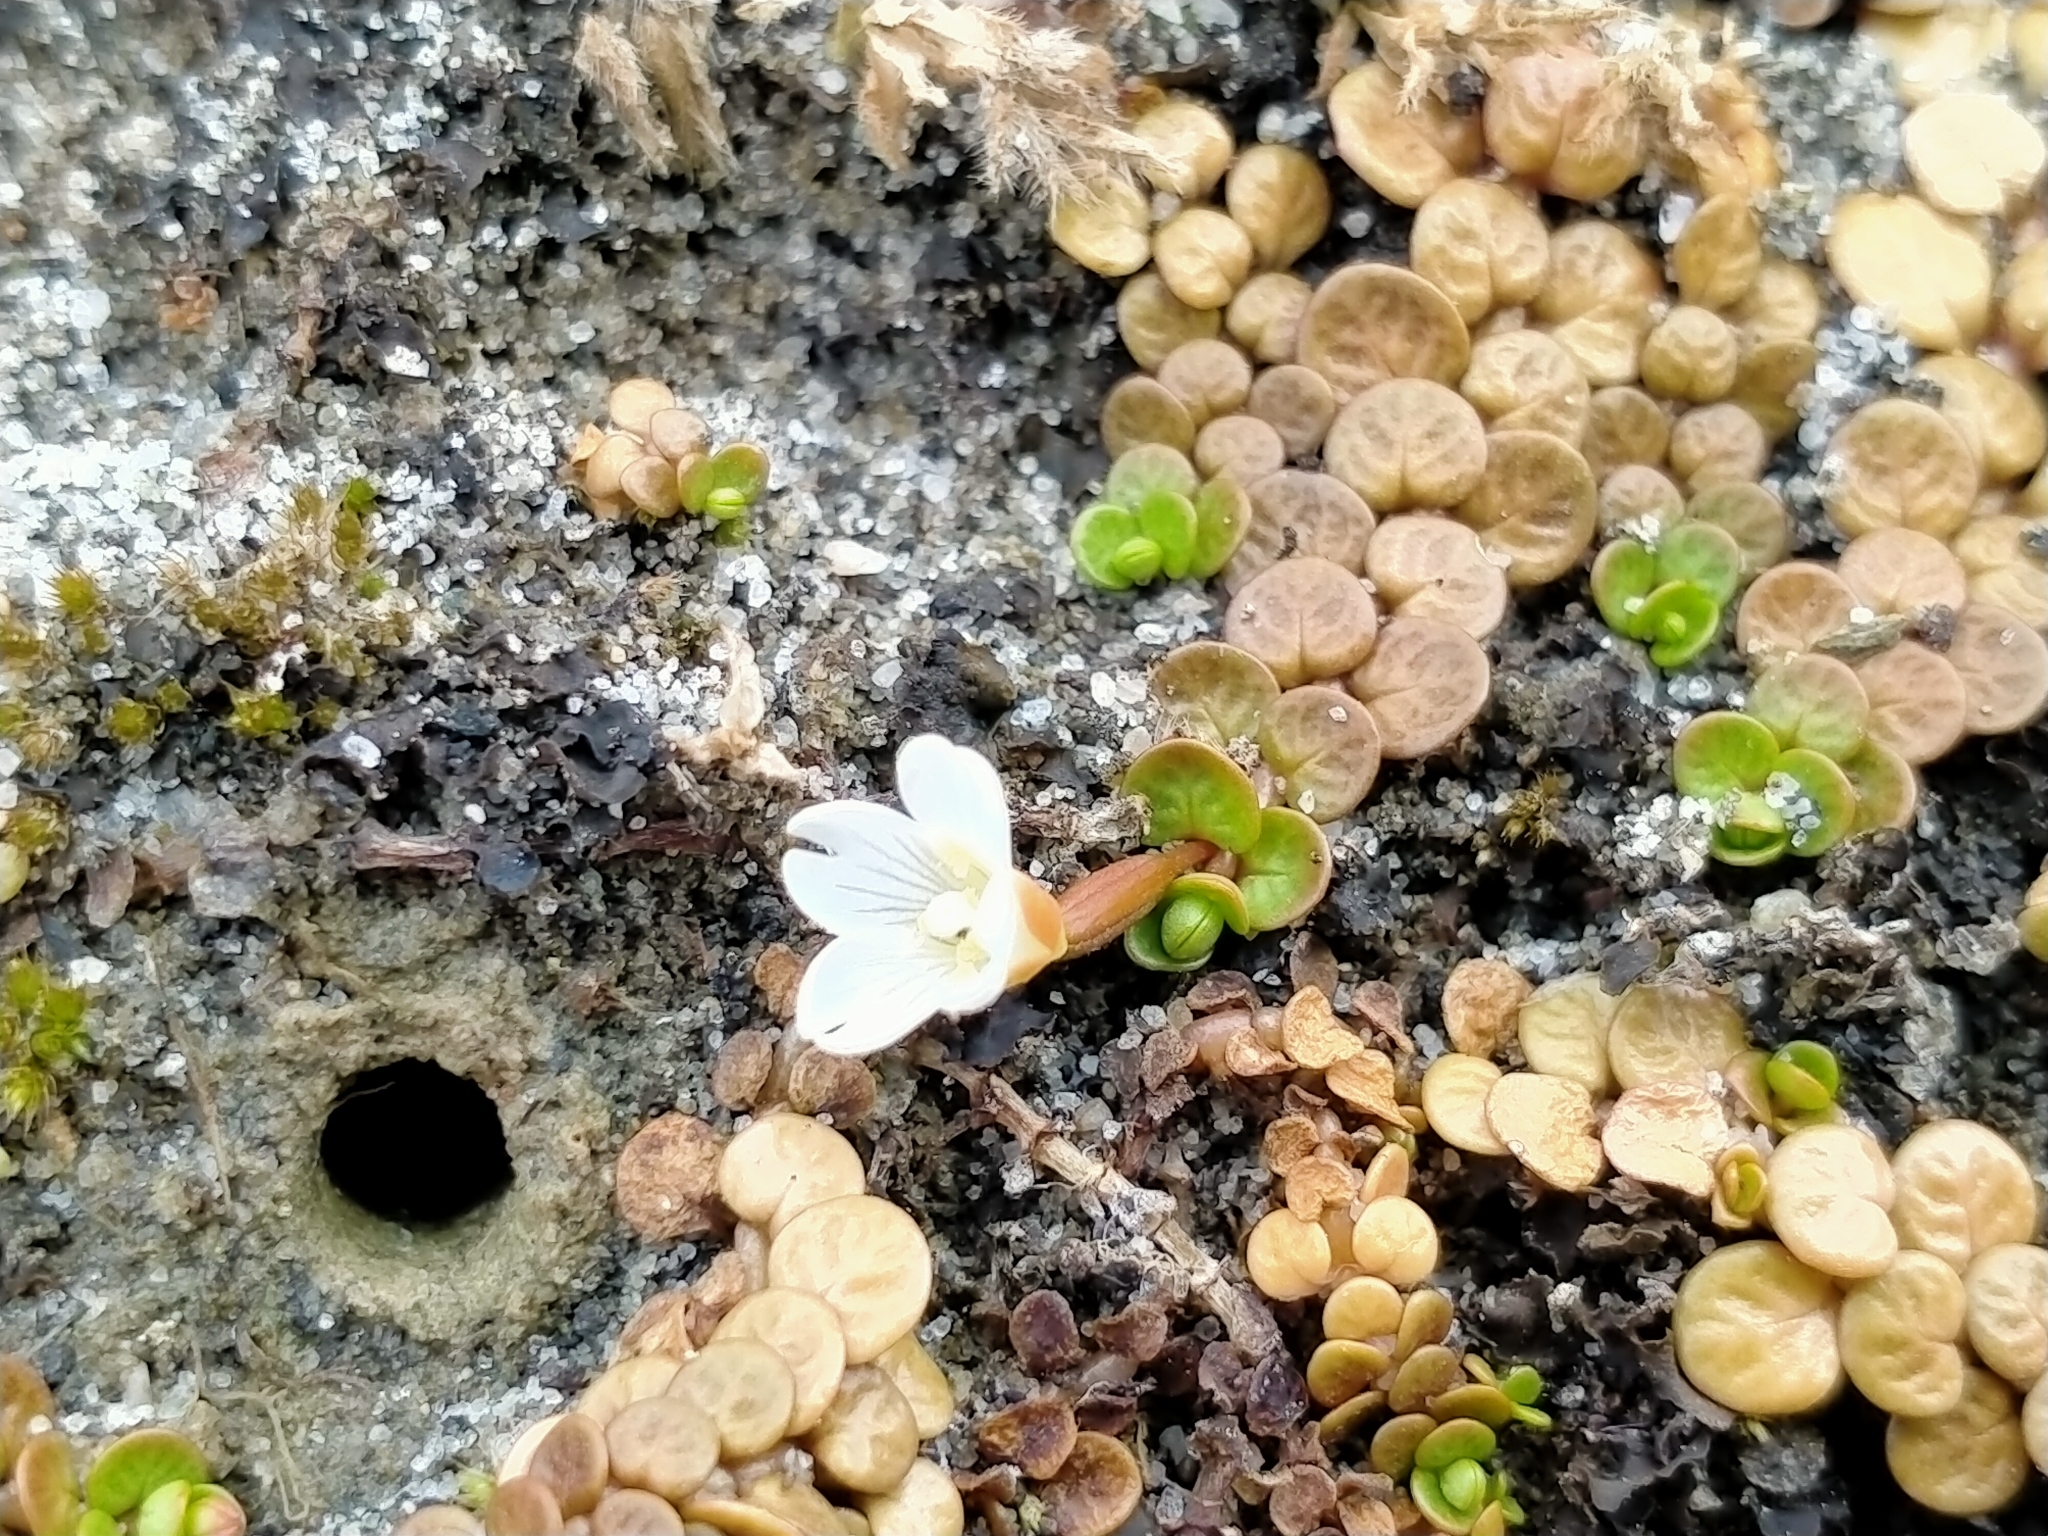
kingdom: Plantae
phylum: Tracheophyta
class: Magnoliopsida
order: Myrtales
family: Onagraceae
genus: Epilobium
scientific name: Epilobium komarovianum
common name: Bronzy willowherb
